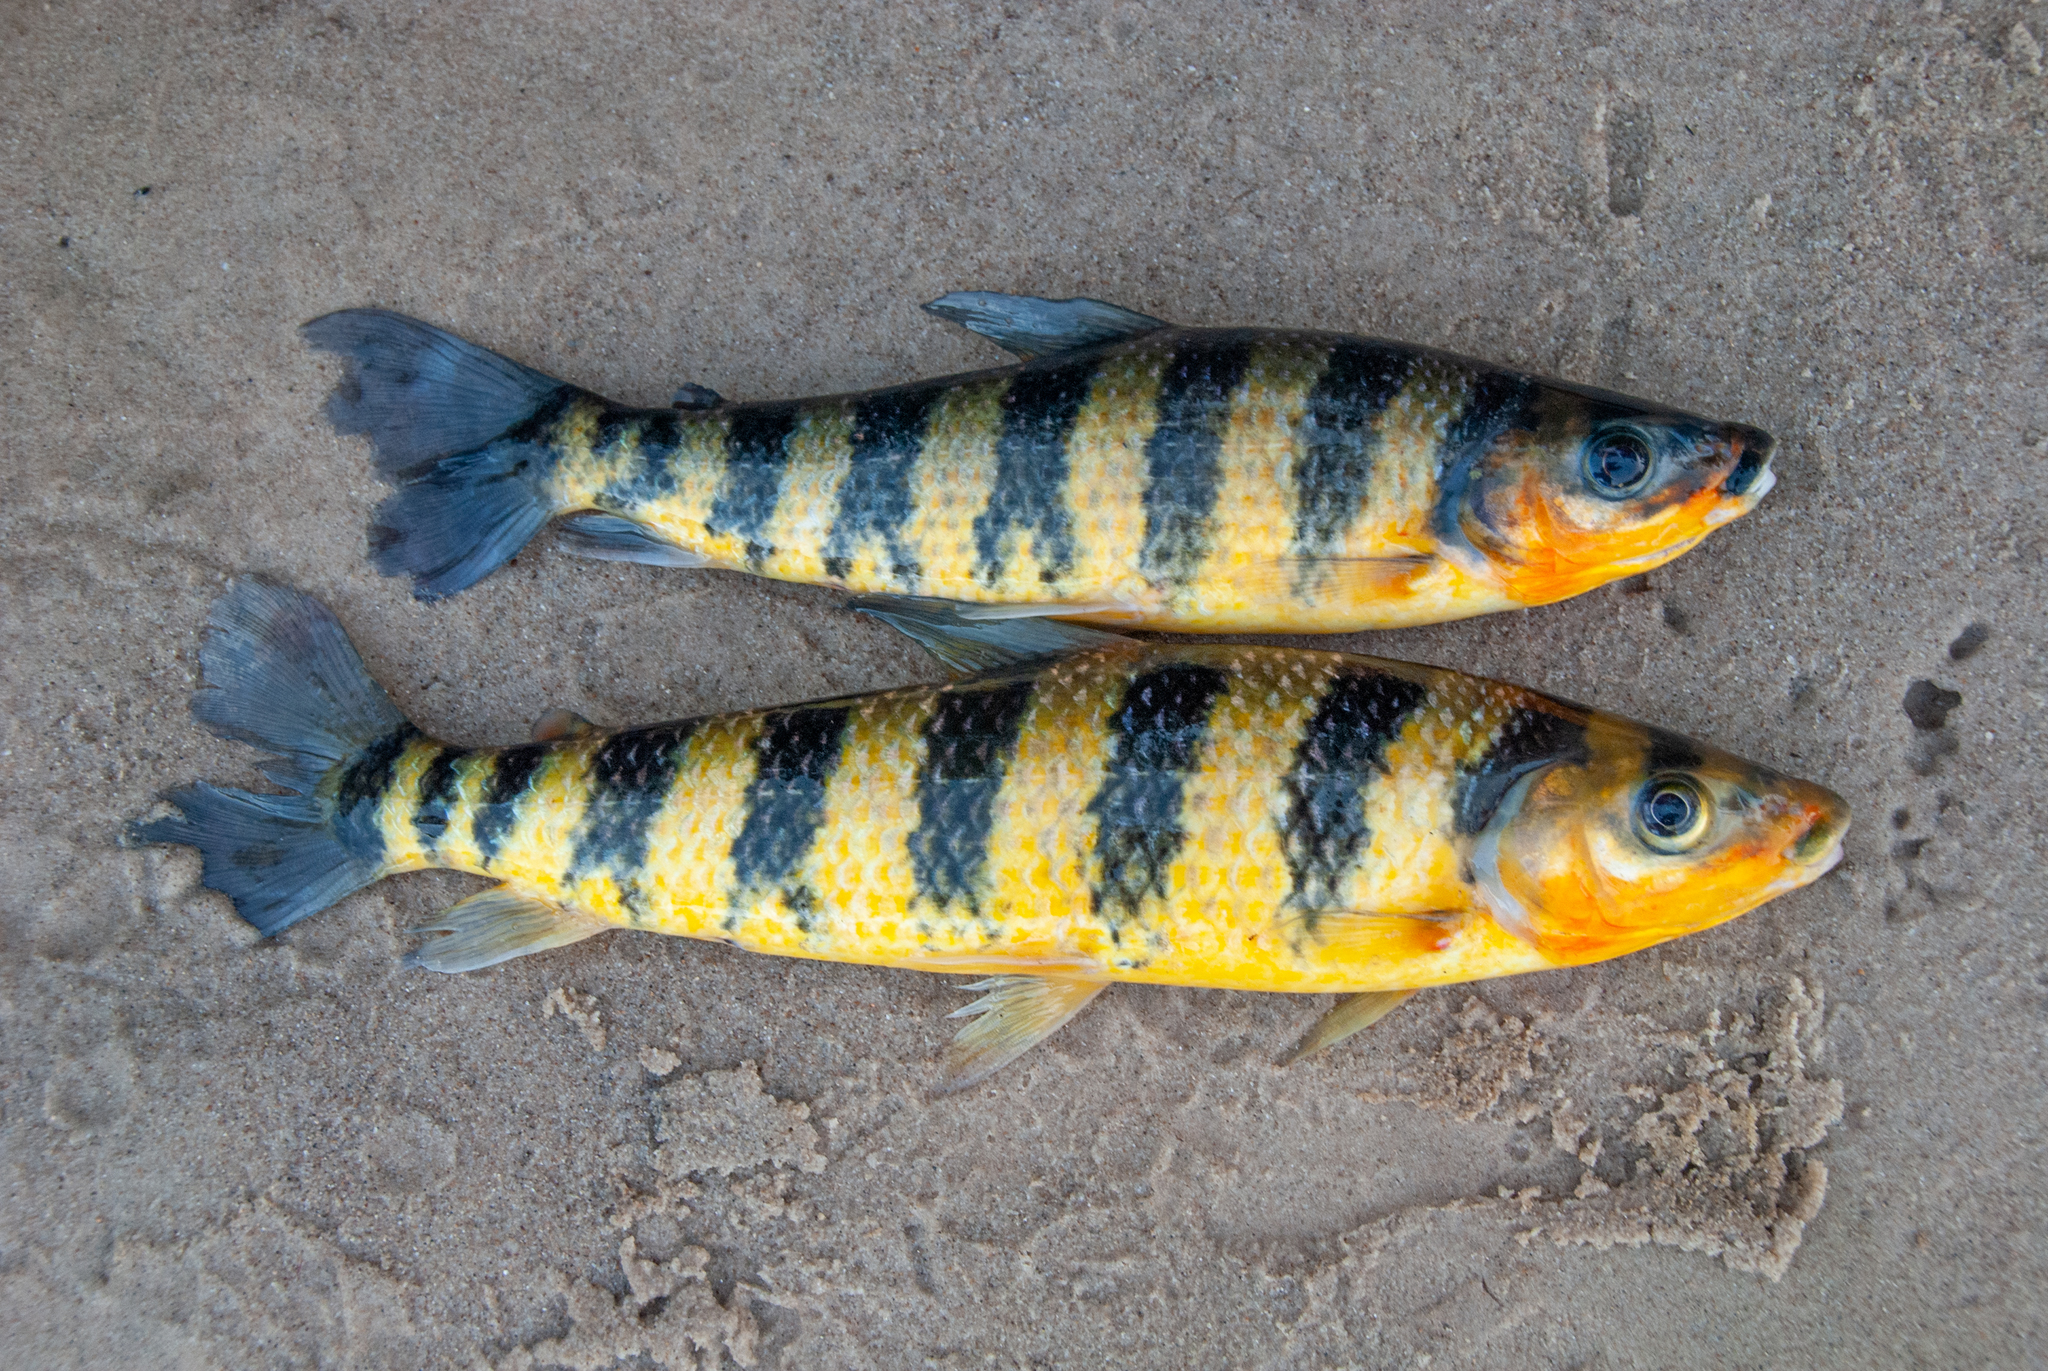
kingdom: Animalia
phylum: Chordata
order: Characiformes
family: Anostomidae
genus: Leporinus
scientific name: Leporinus fasciatus
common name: Banded leporinus
